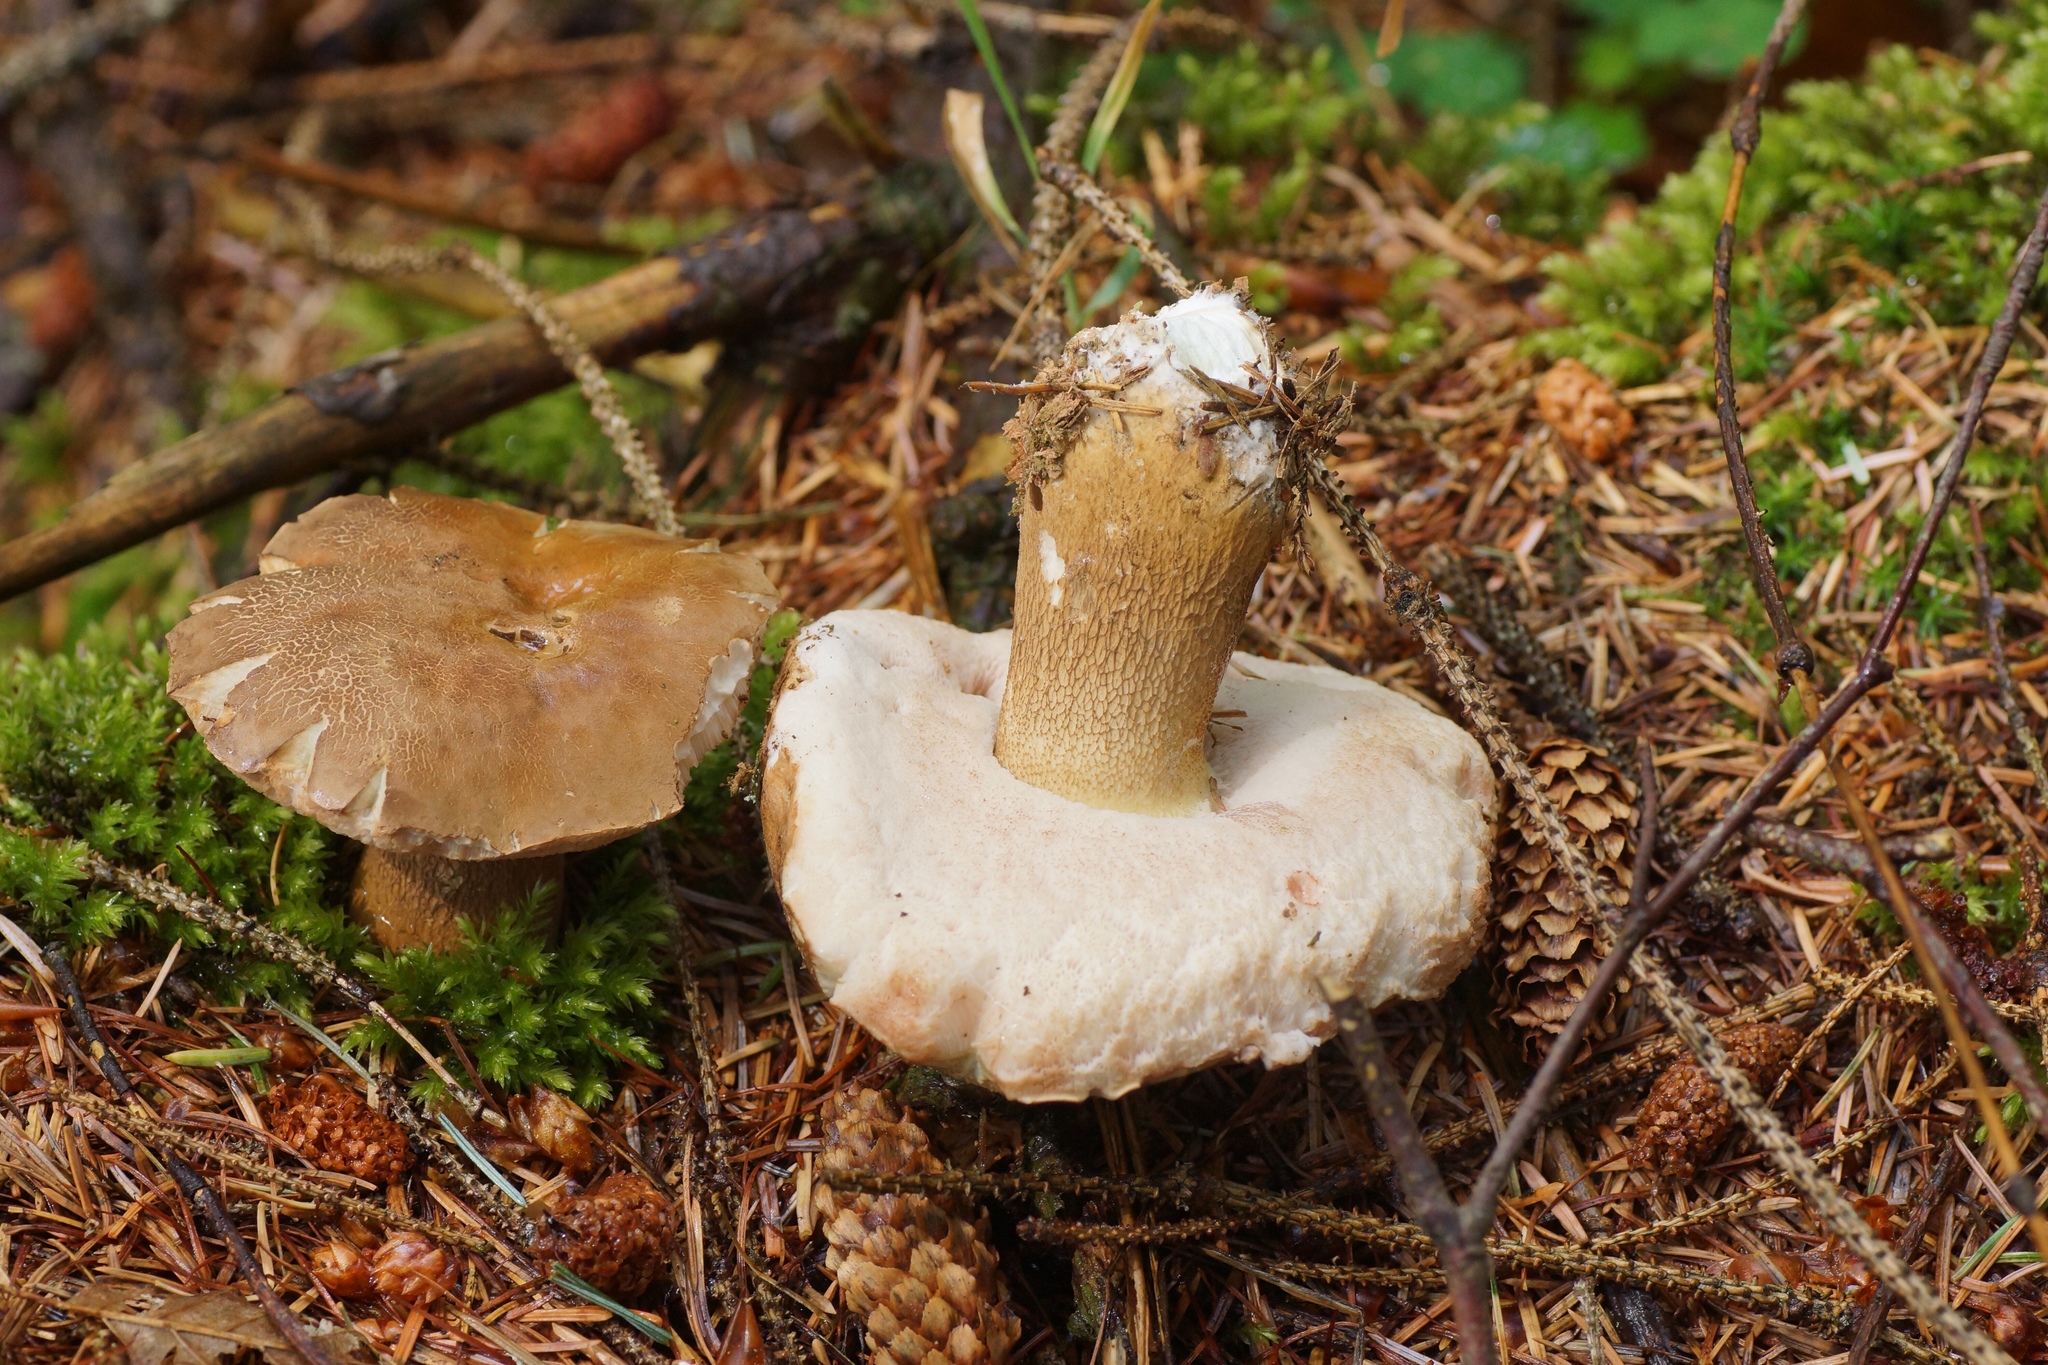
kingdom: Fungi
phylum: Basidiomycota
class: Agaricomycetes
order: Boletales
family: Boletaceae
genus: Tylopilus
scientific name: Tylopilus felleus
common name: Bitter bolete
